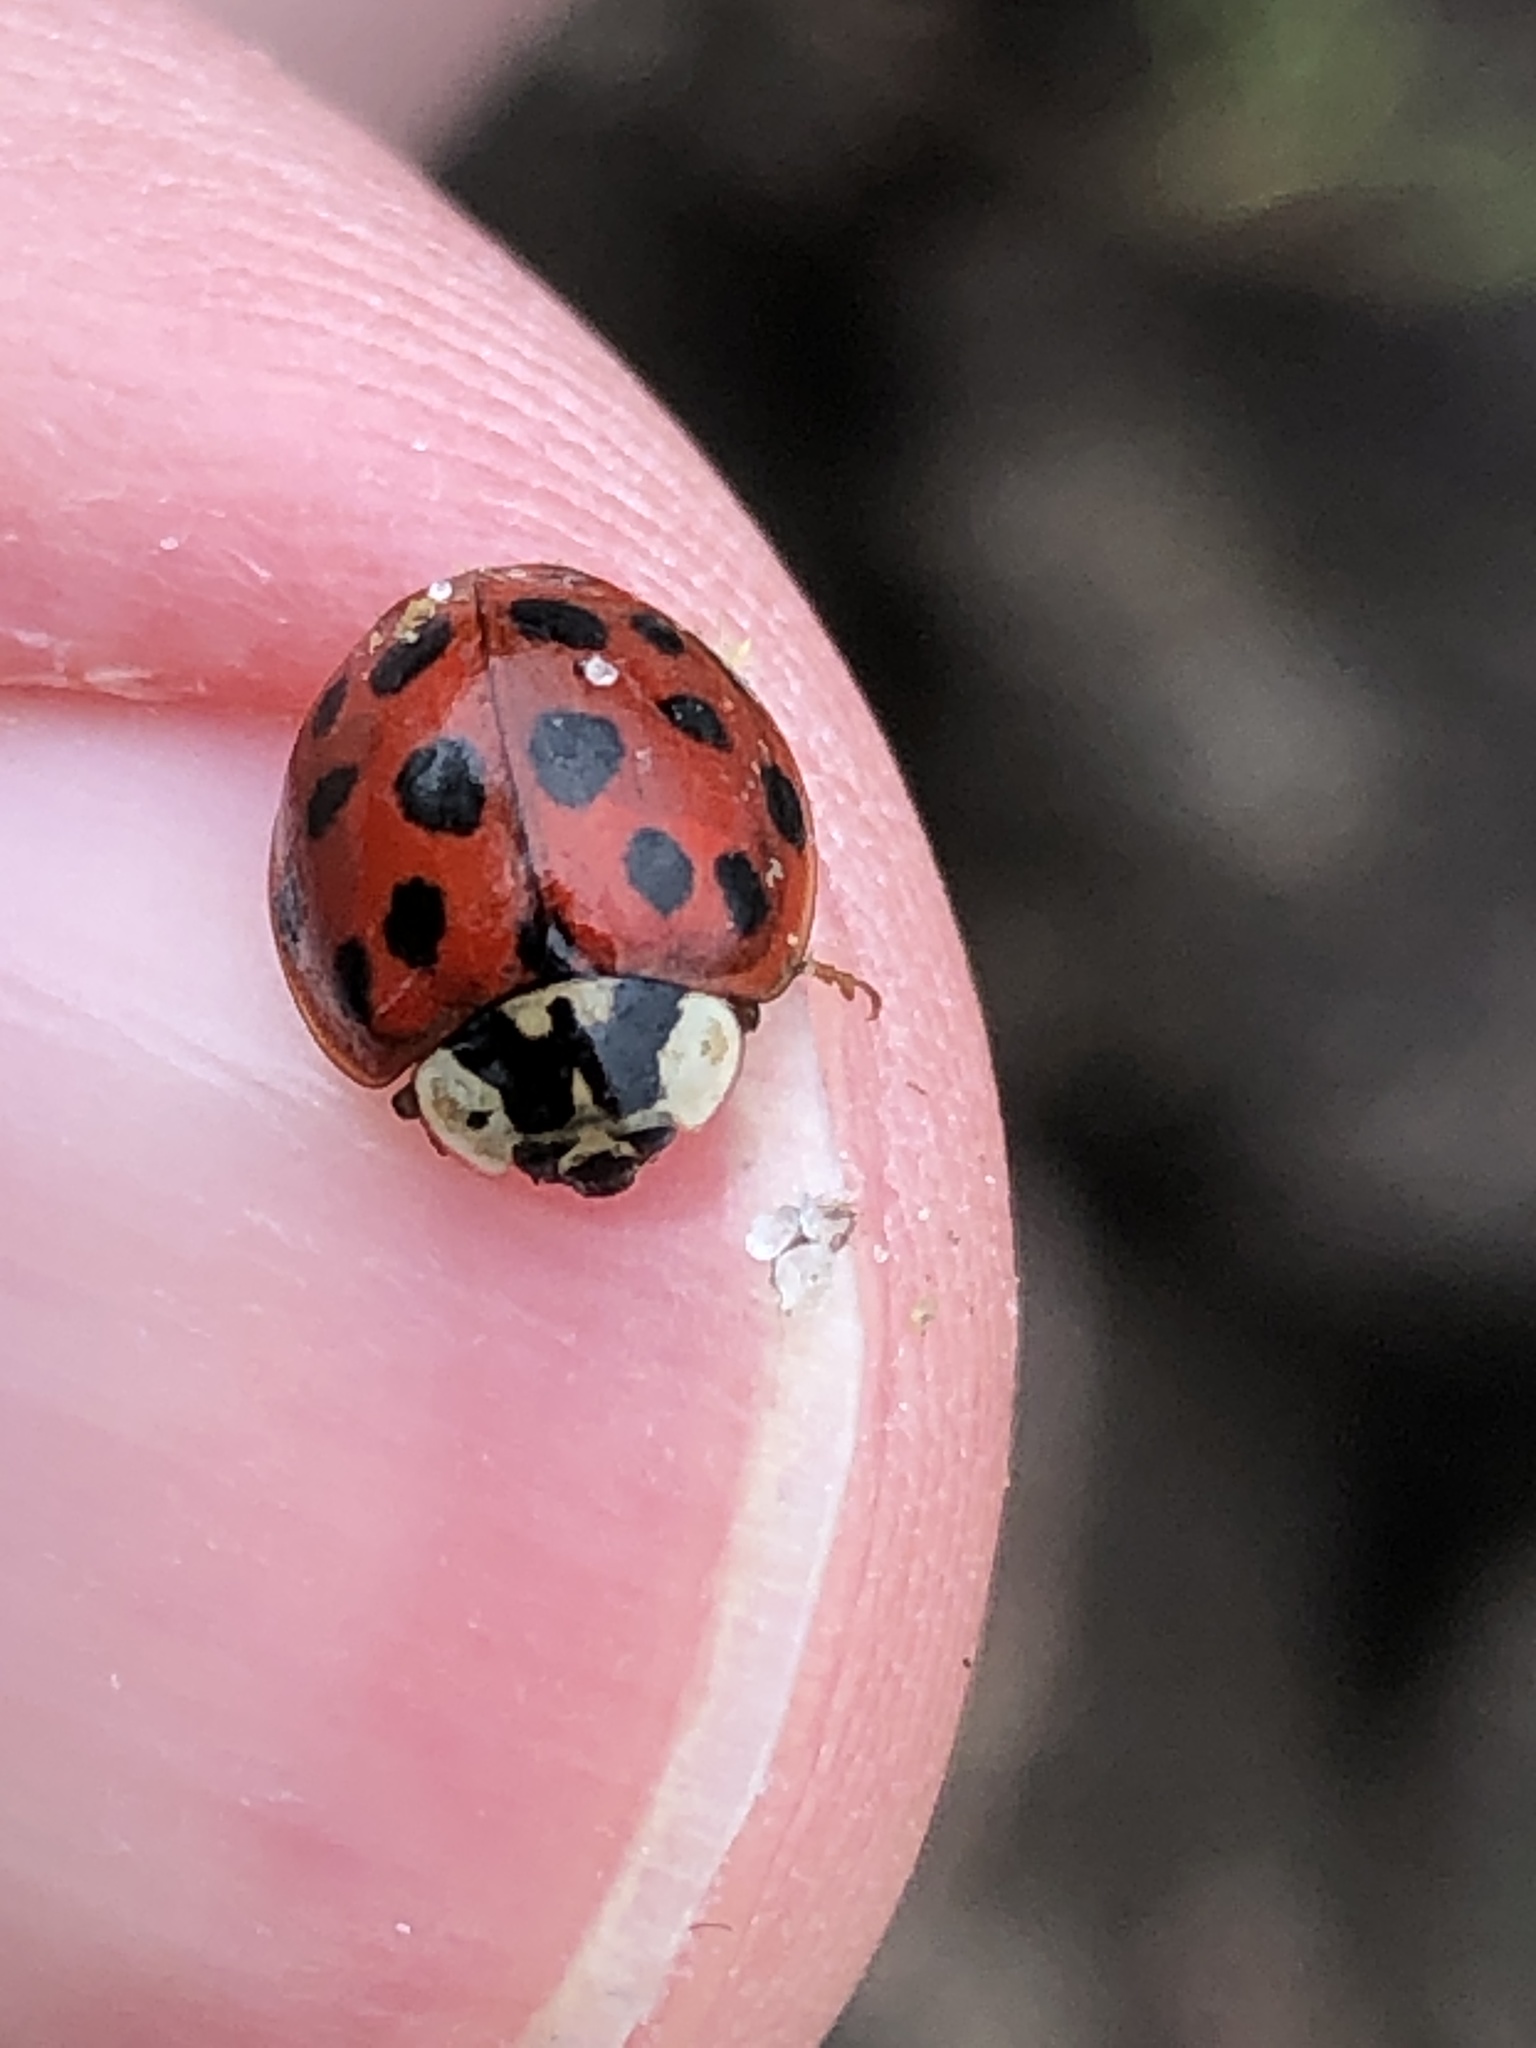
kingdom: Animalia
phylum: Arthropoda
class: Insecta
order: Coleoptera
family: Coccinellidae
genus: Harmonia
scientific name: Harmonia axyridis
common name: Harlequin ladybird
